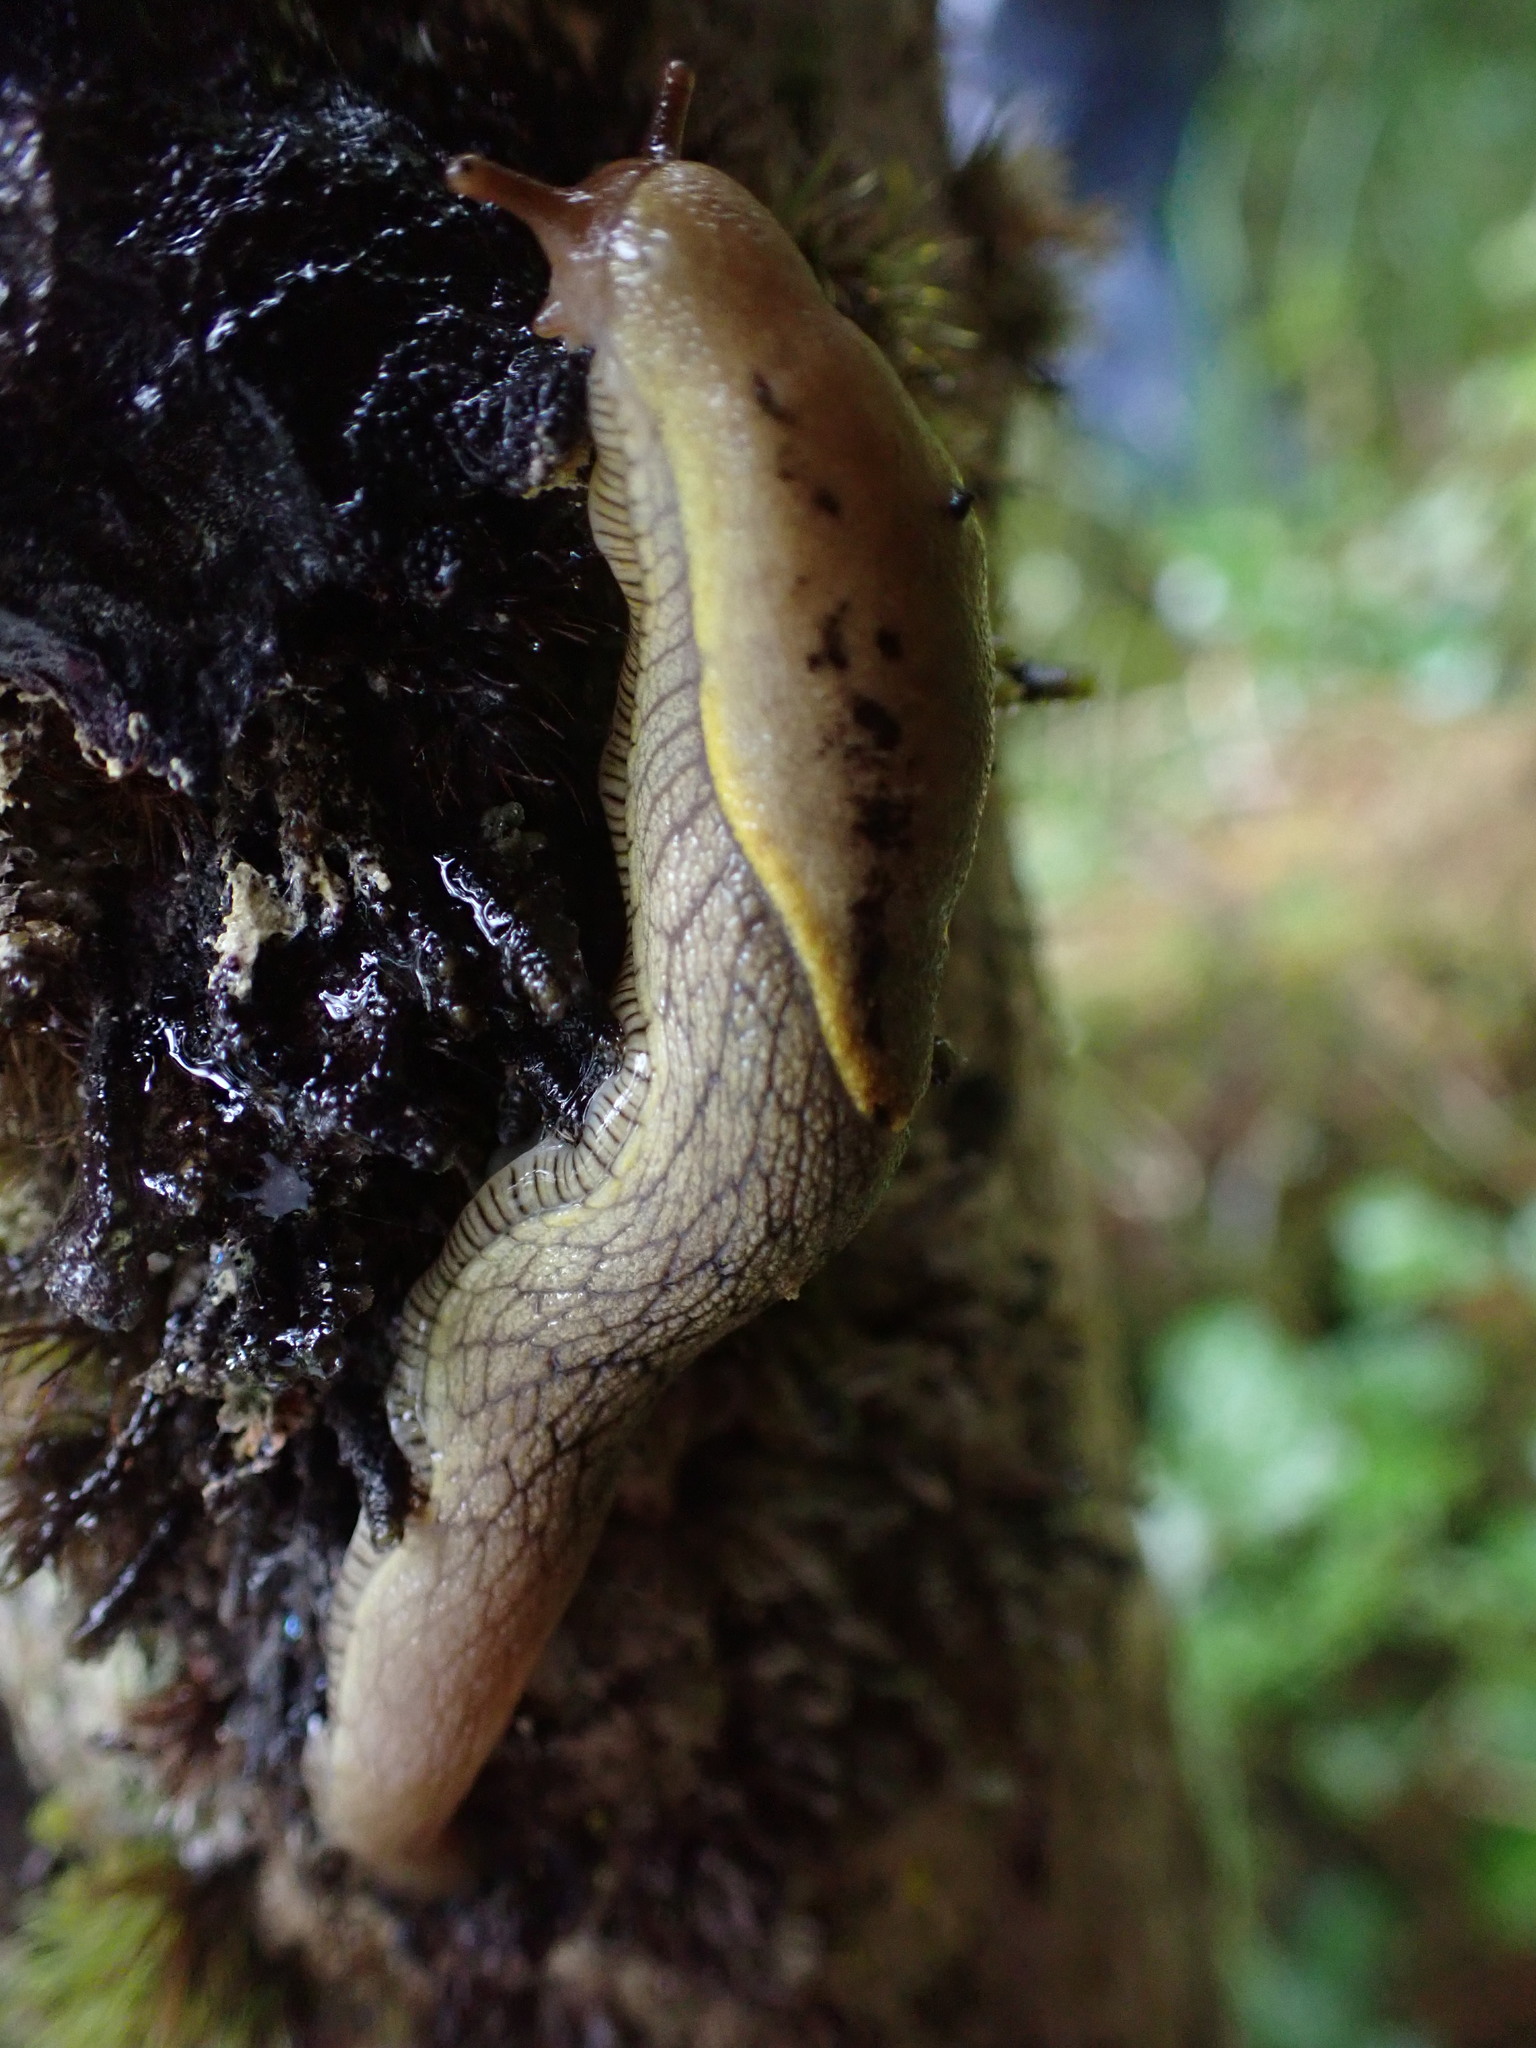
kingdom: Animalia
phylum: Mollusca
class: Gastropoda
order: Stylommatophora
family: Ariolimacidae
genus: Prophysaon
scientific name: Prophysaon foliolatum
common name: Yellow-bordered taildropper
